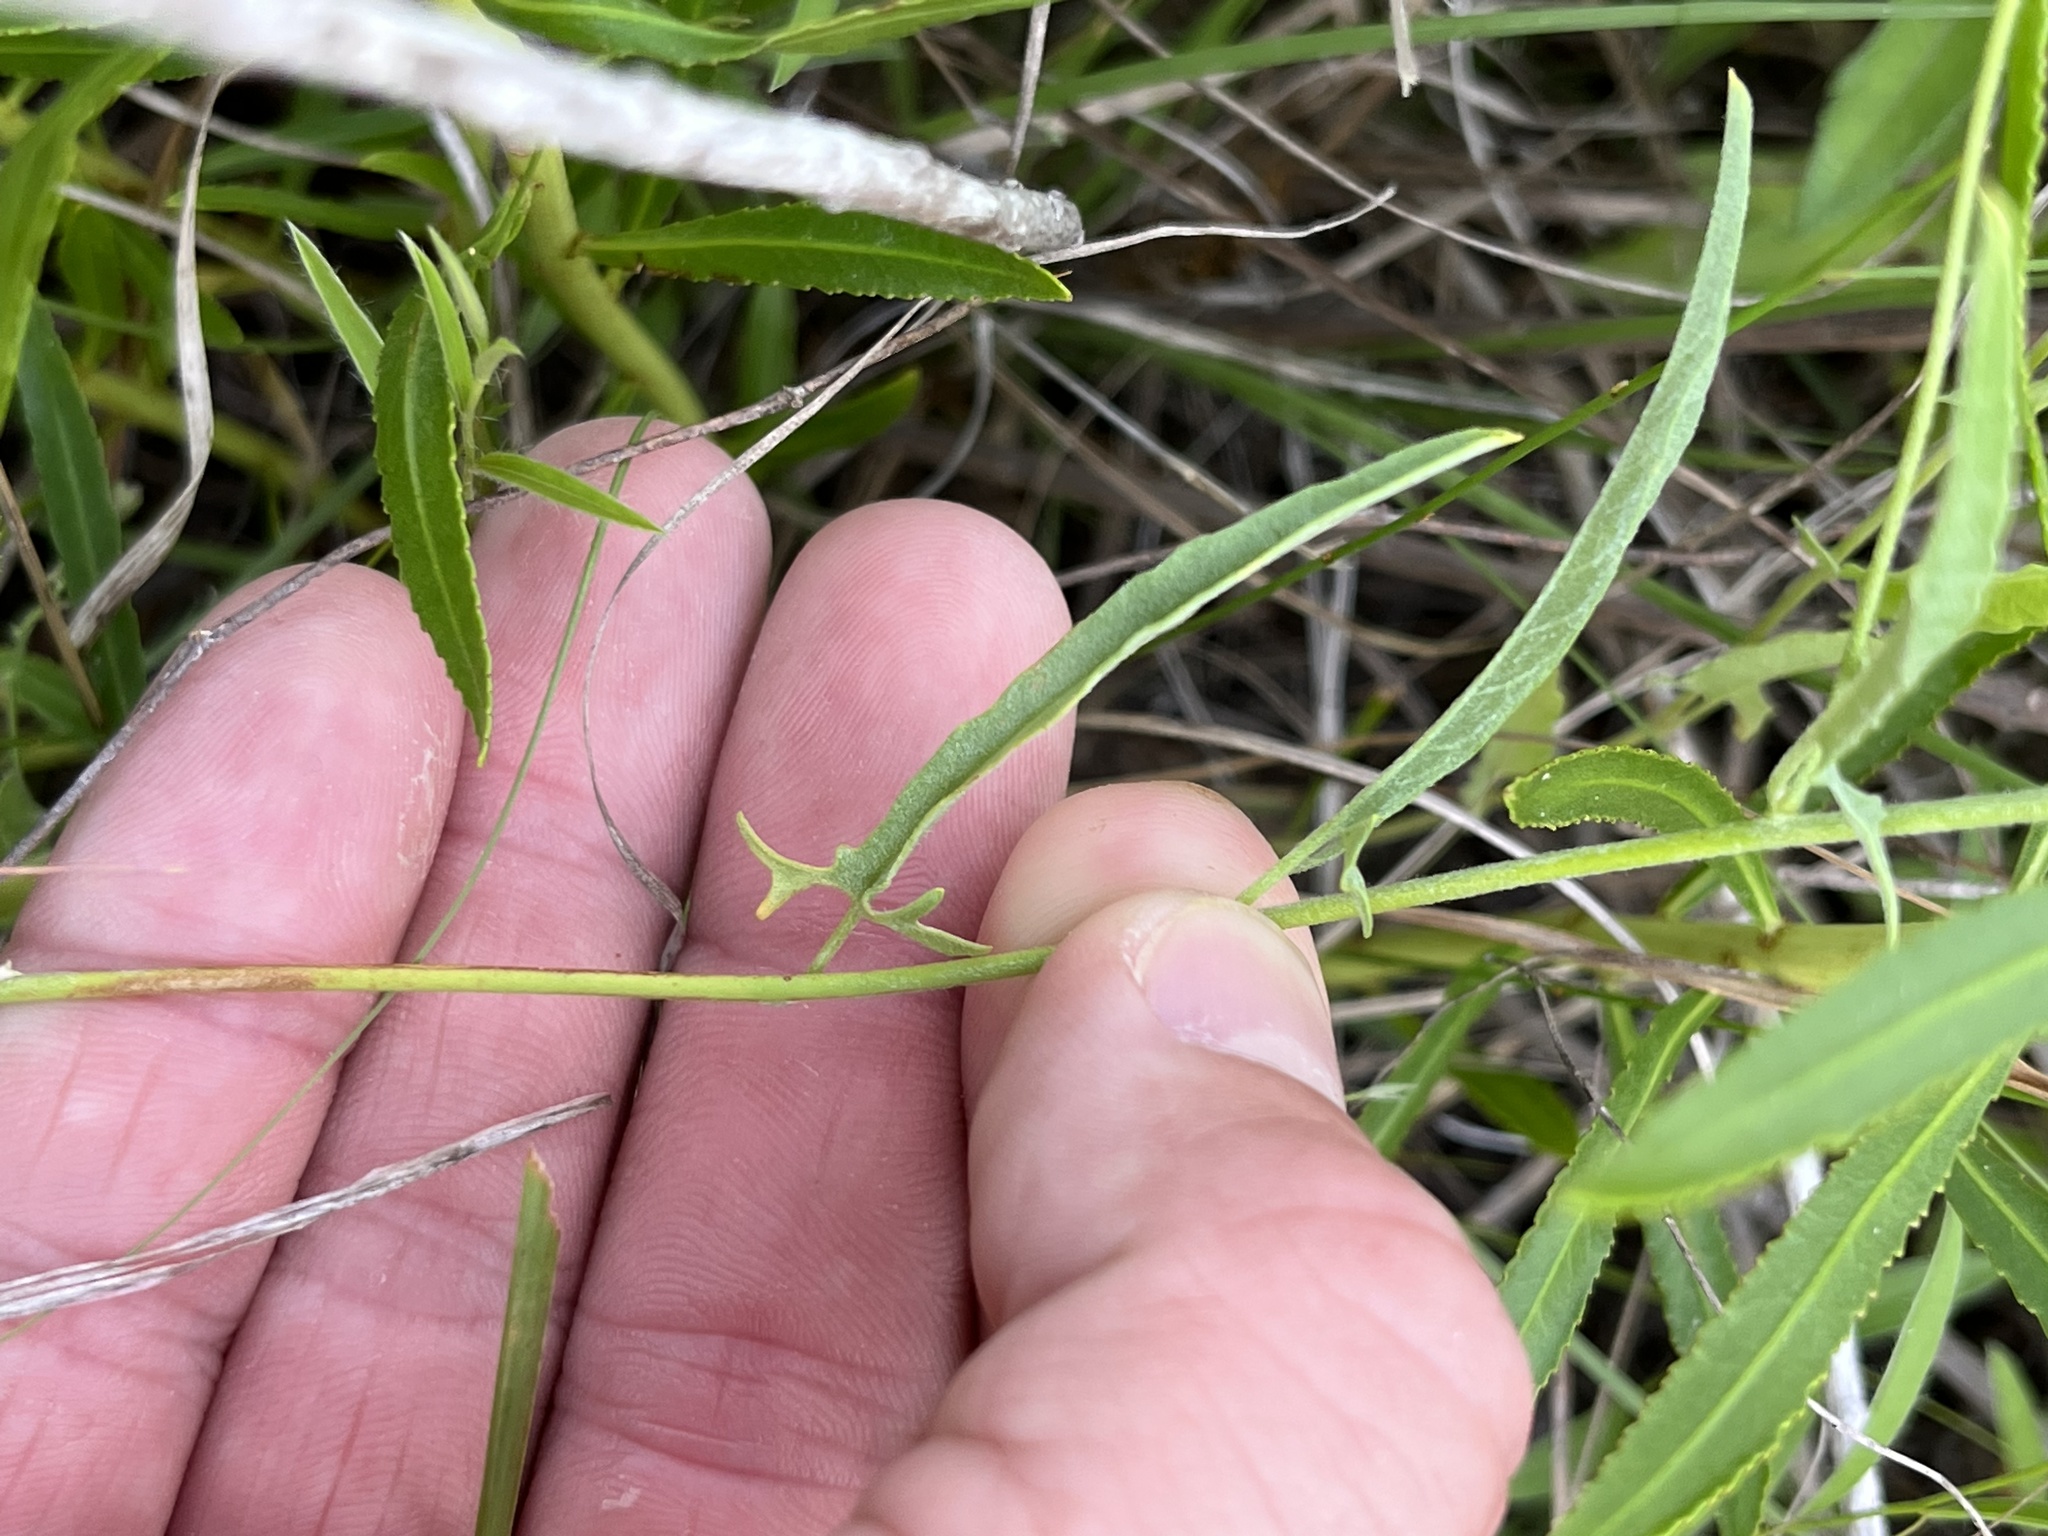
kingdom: Plantae
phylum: Tracheophyta
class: Magnoliopsida
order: Solanales
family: Convolvulaceae
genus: Convolvulus
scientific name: Convolvulus equitans
